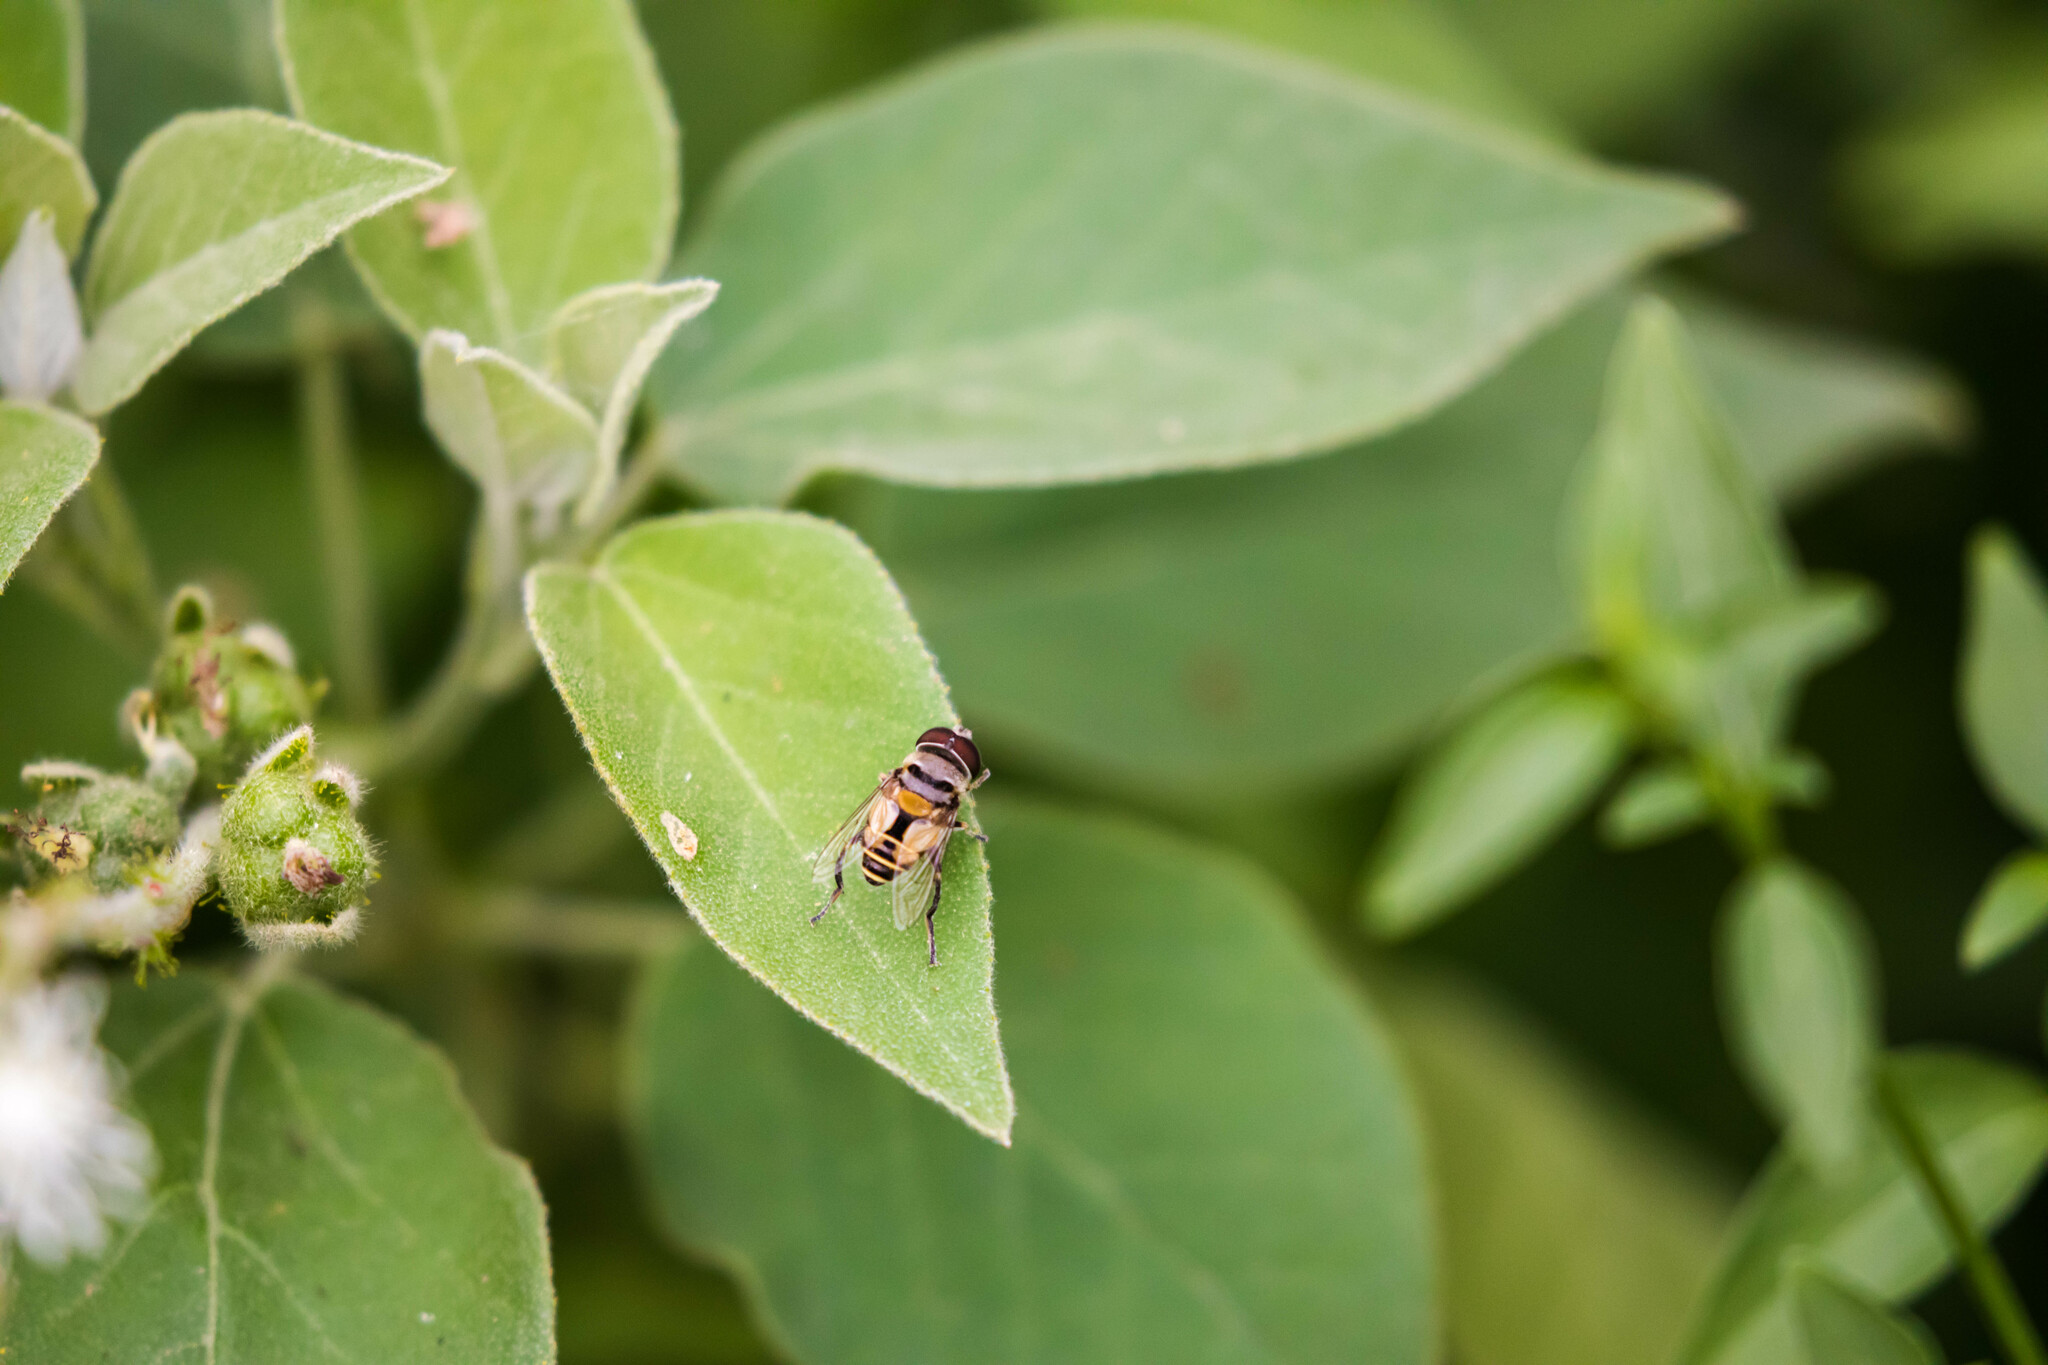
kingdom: Animalia
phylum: Arthropoda
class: Insecta
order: Diptera
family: Syrphidae
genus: Palpada
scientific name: Palpada alhambra
